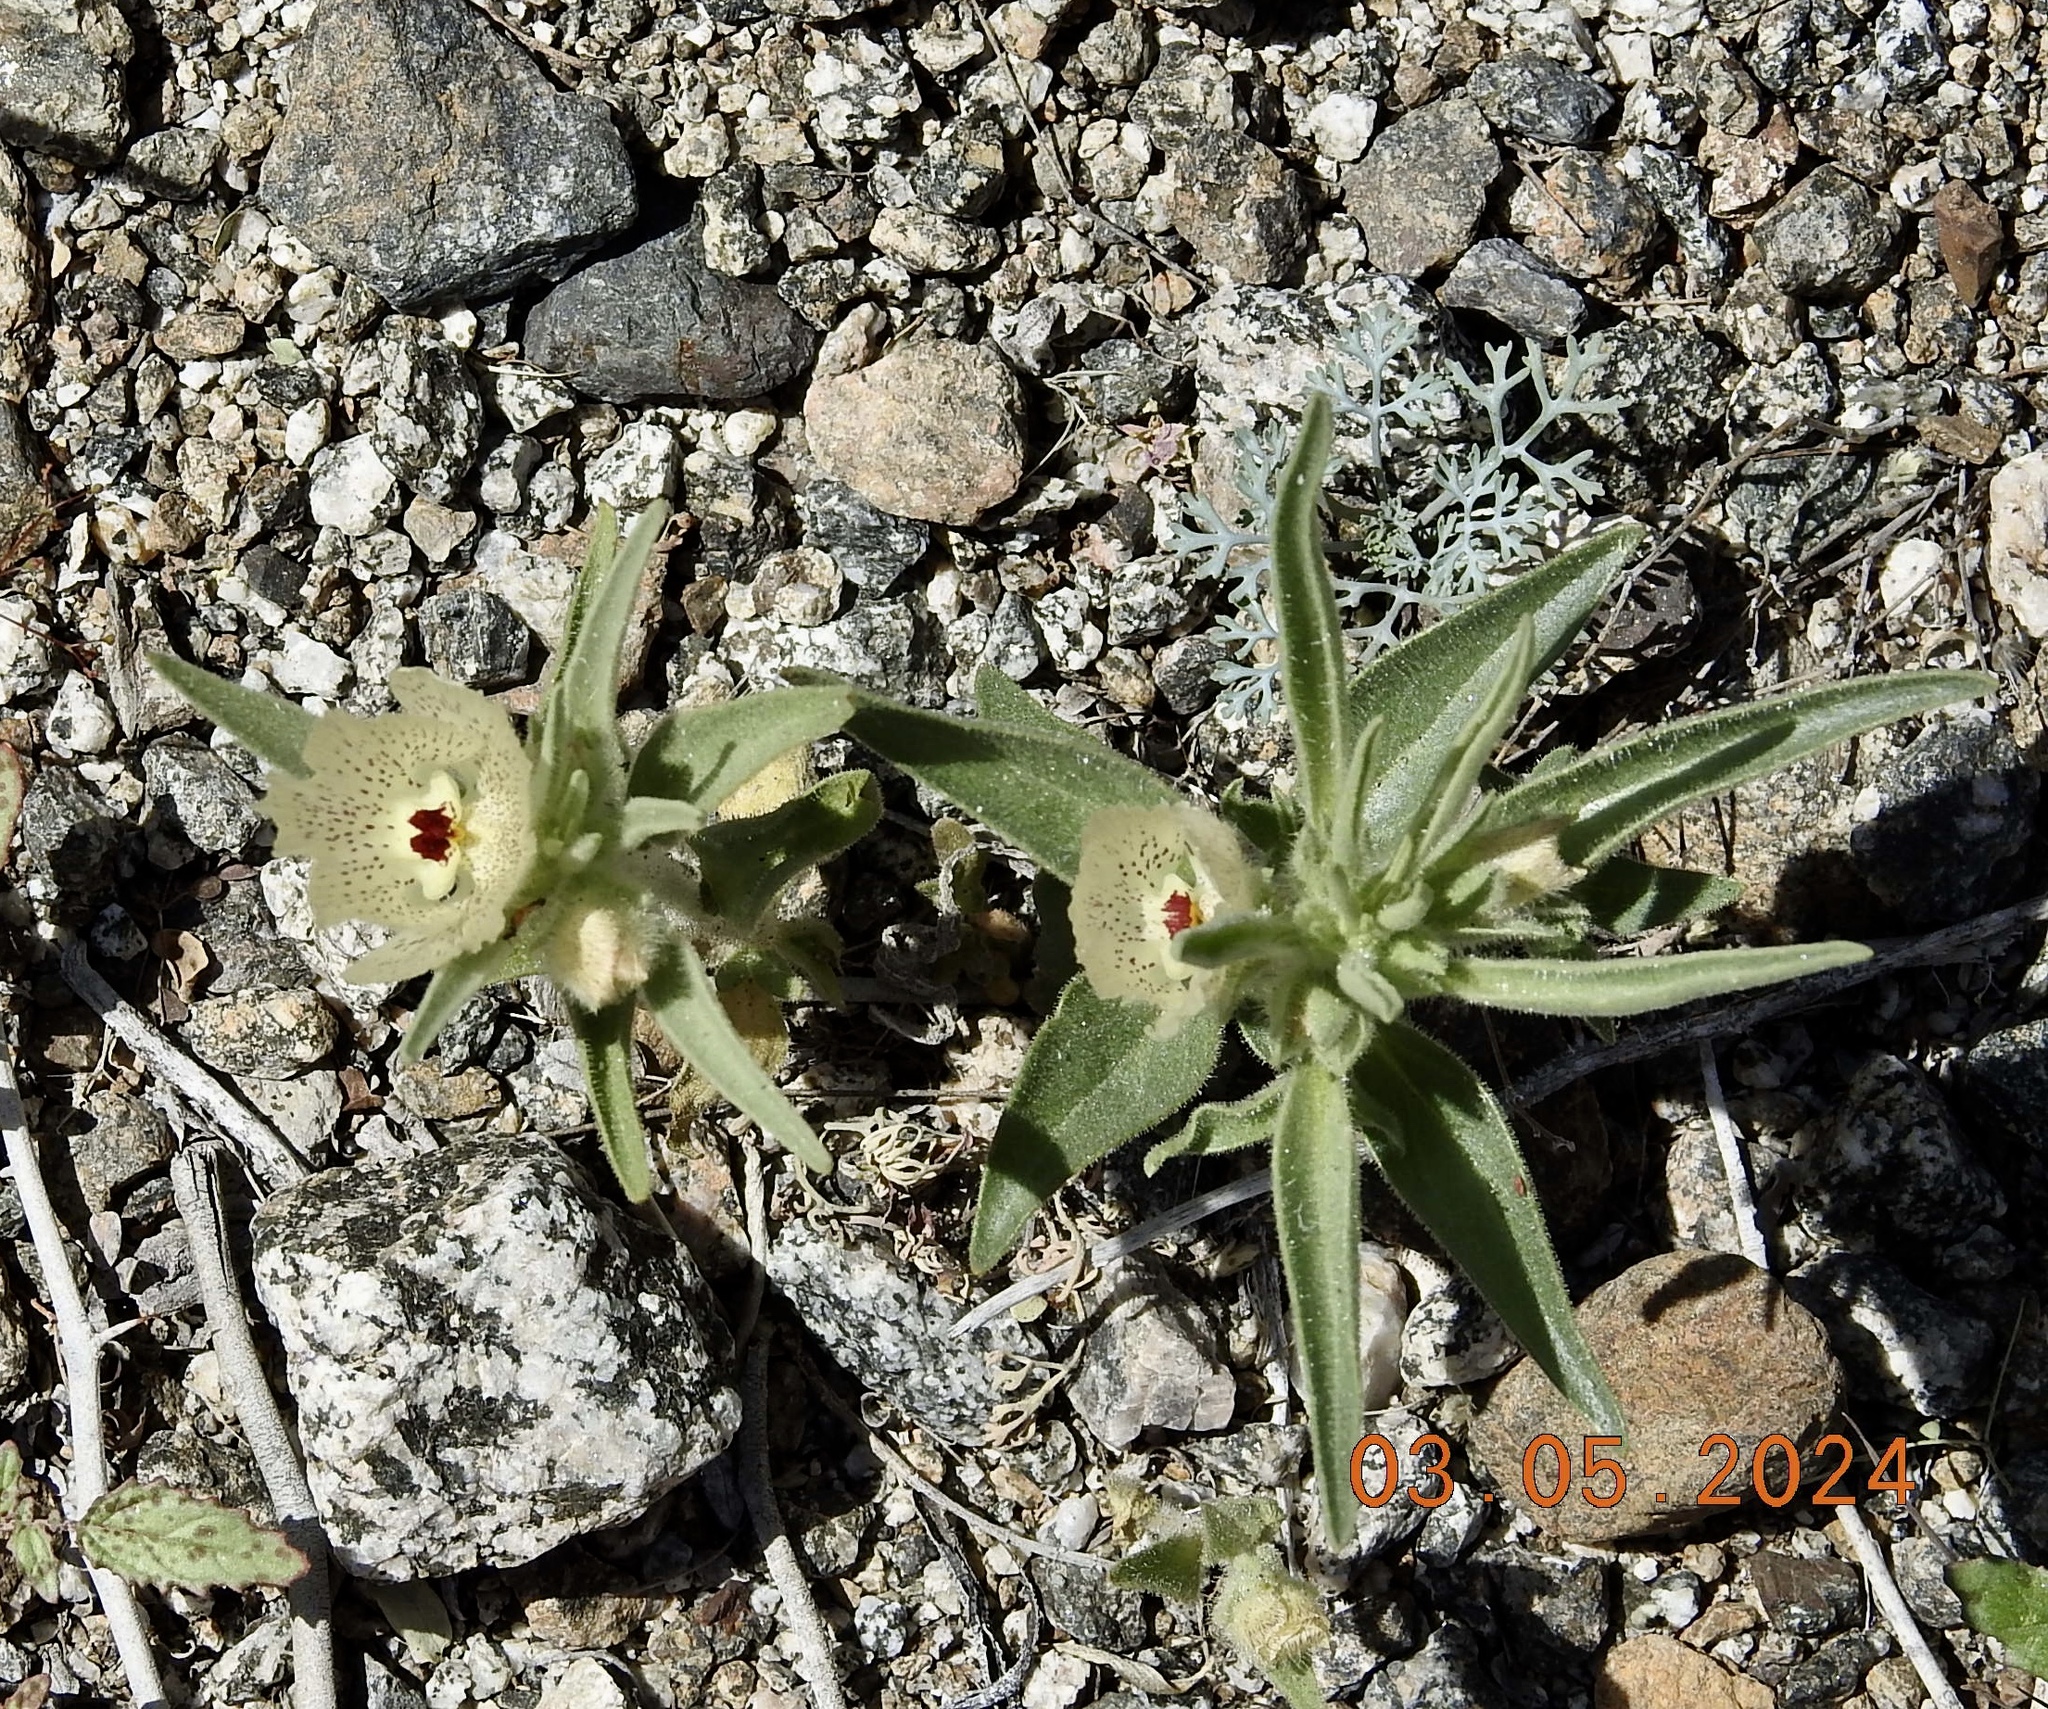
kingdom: Plantae
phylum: Tracheophyta
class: Magnoliopsida
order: Lamiales
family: Plantaginaceae
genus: Mohavea
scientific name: Mohavea confertiflora
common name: Ghost flower
